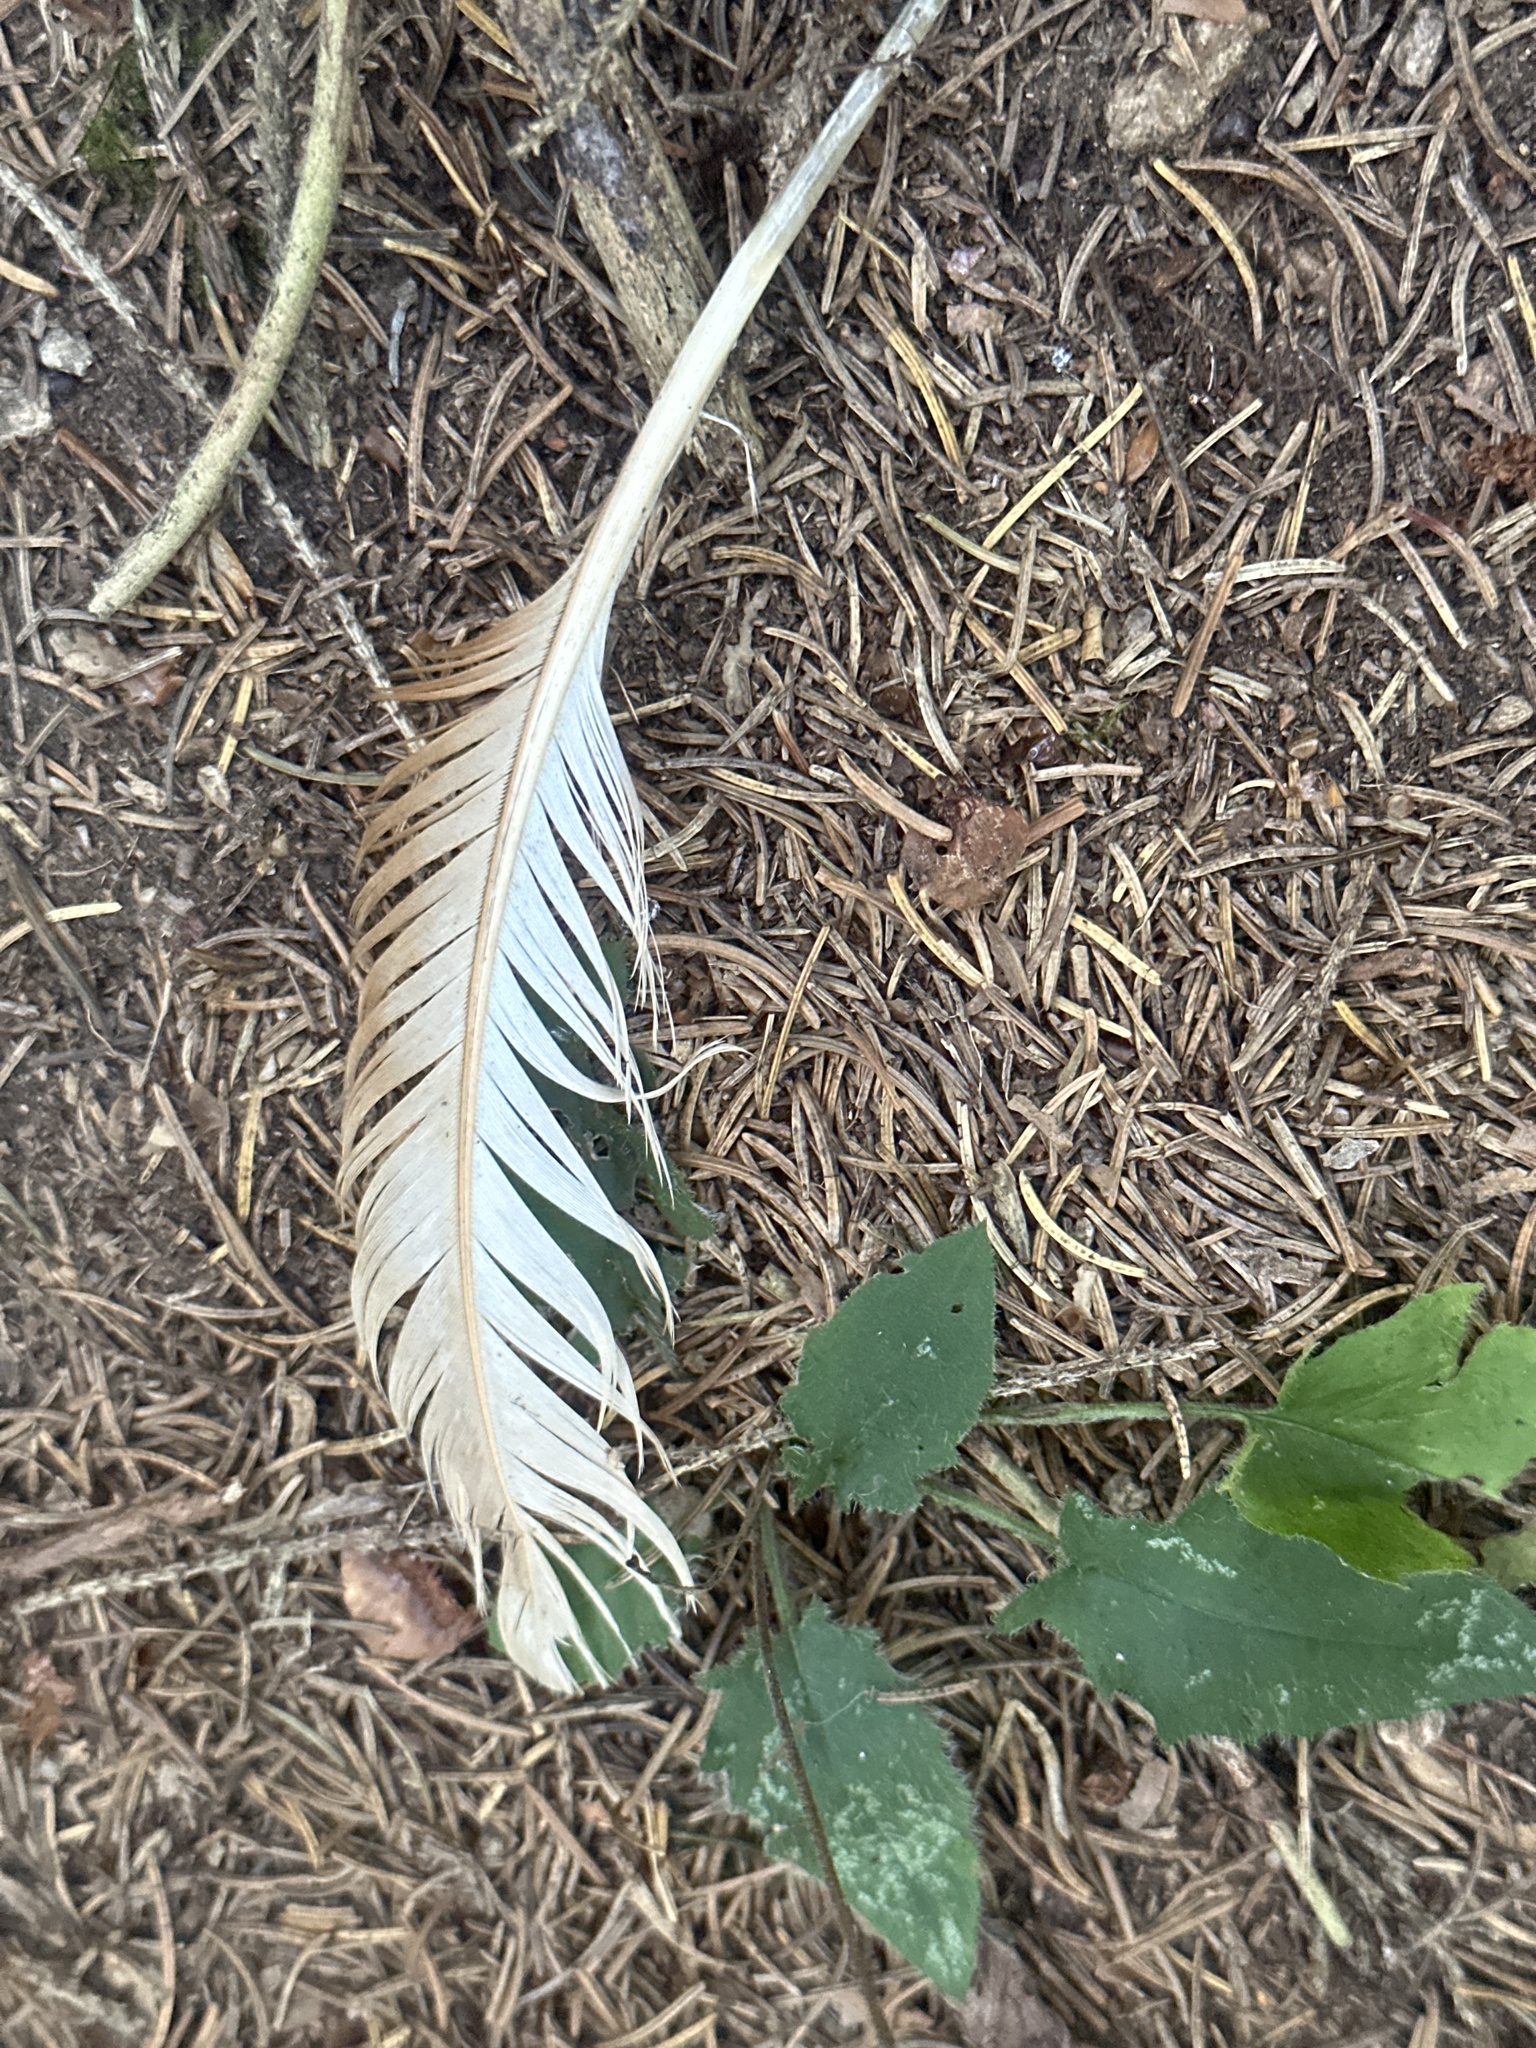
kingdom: Animalia
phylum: Chordata
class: Aves
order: Galliformes
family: Phasianidae
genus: Gallus
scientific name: Gallus gallus
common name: Red junglefowl
